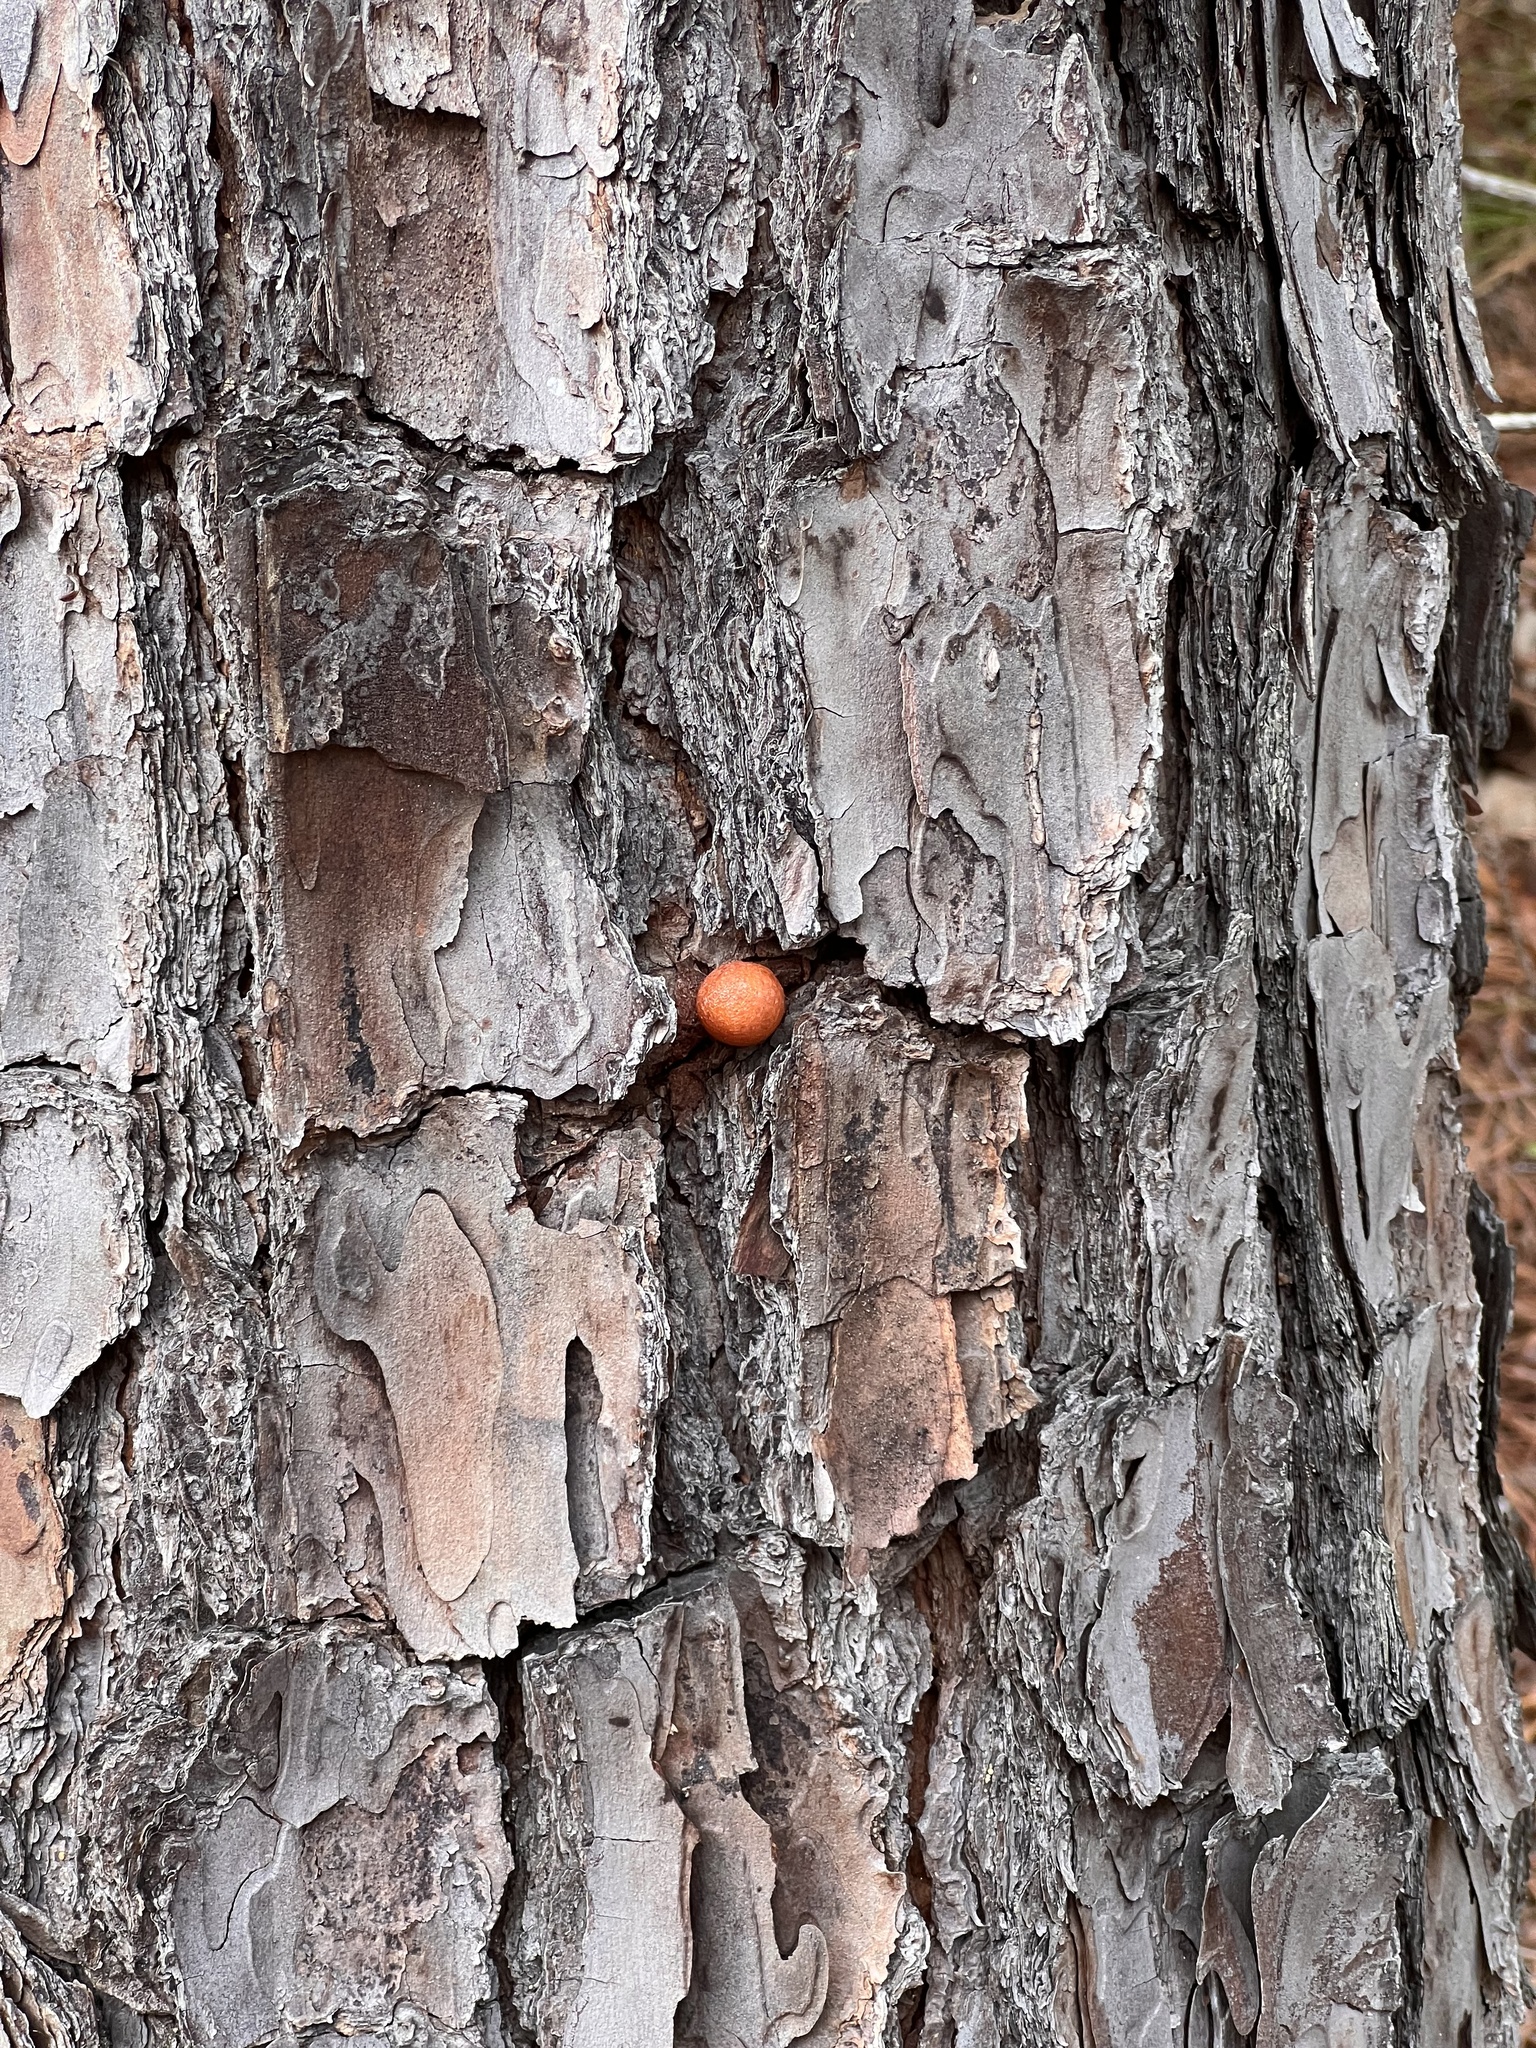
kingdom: Plantae
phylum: Tracheophyta
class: Pinopsida
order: Pinales
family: Pinaceae
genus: Pinus
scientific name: Pinus taeda
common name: Loblolly pine
